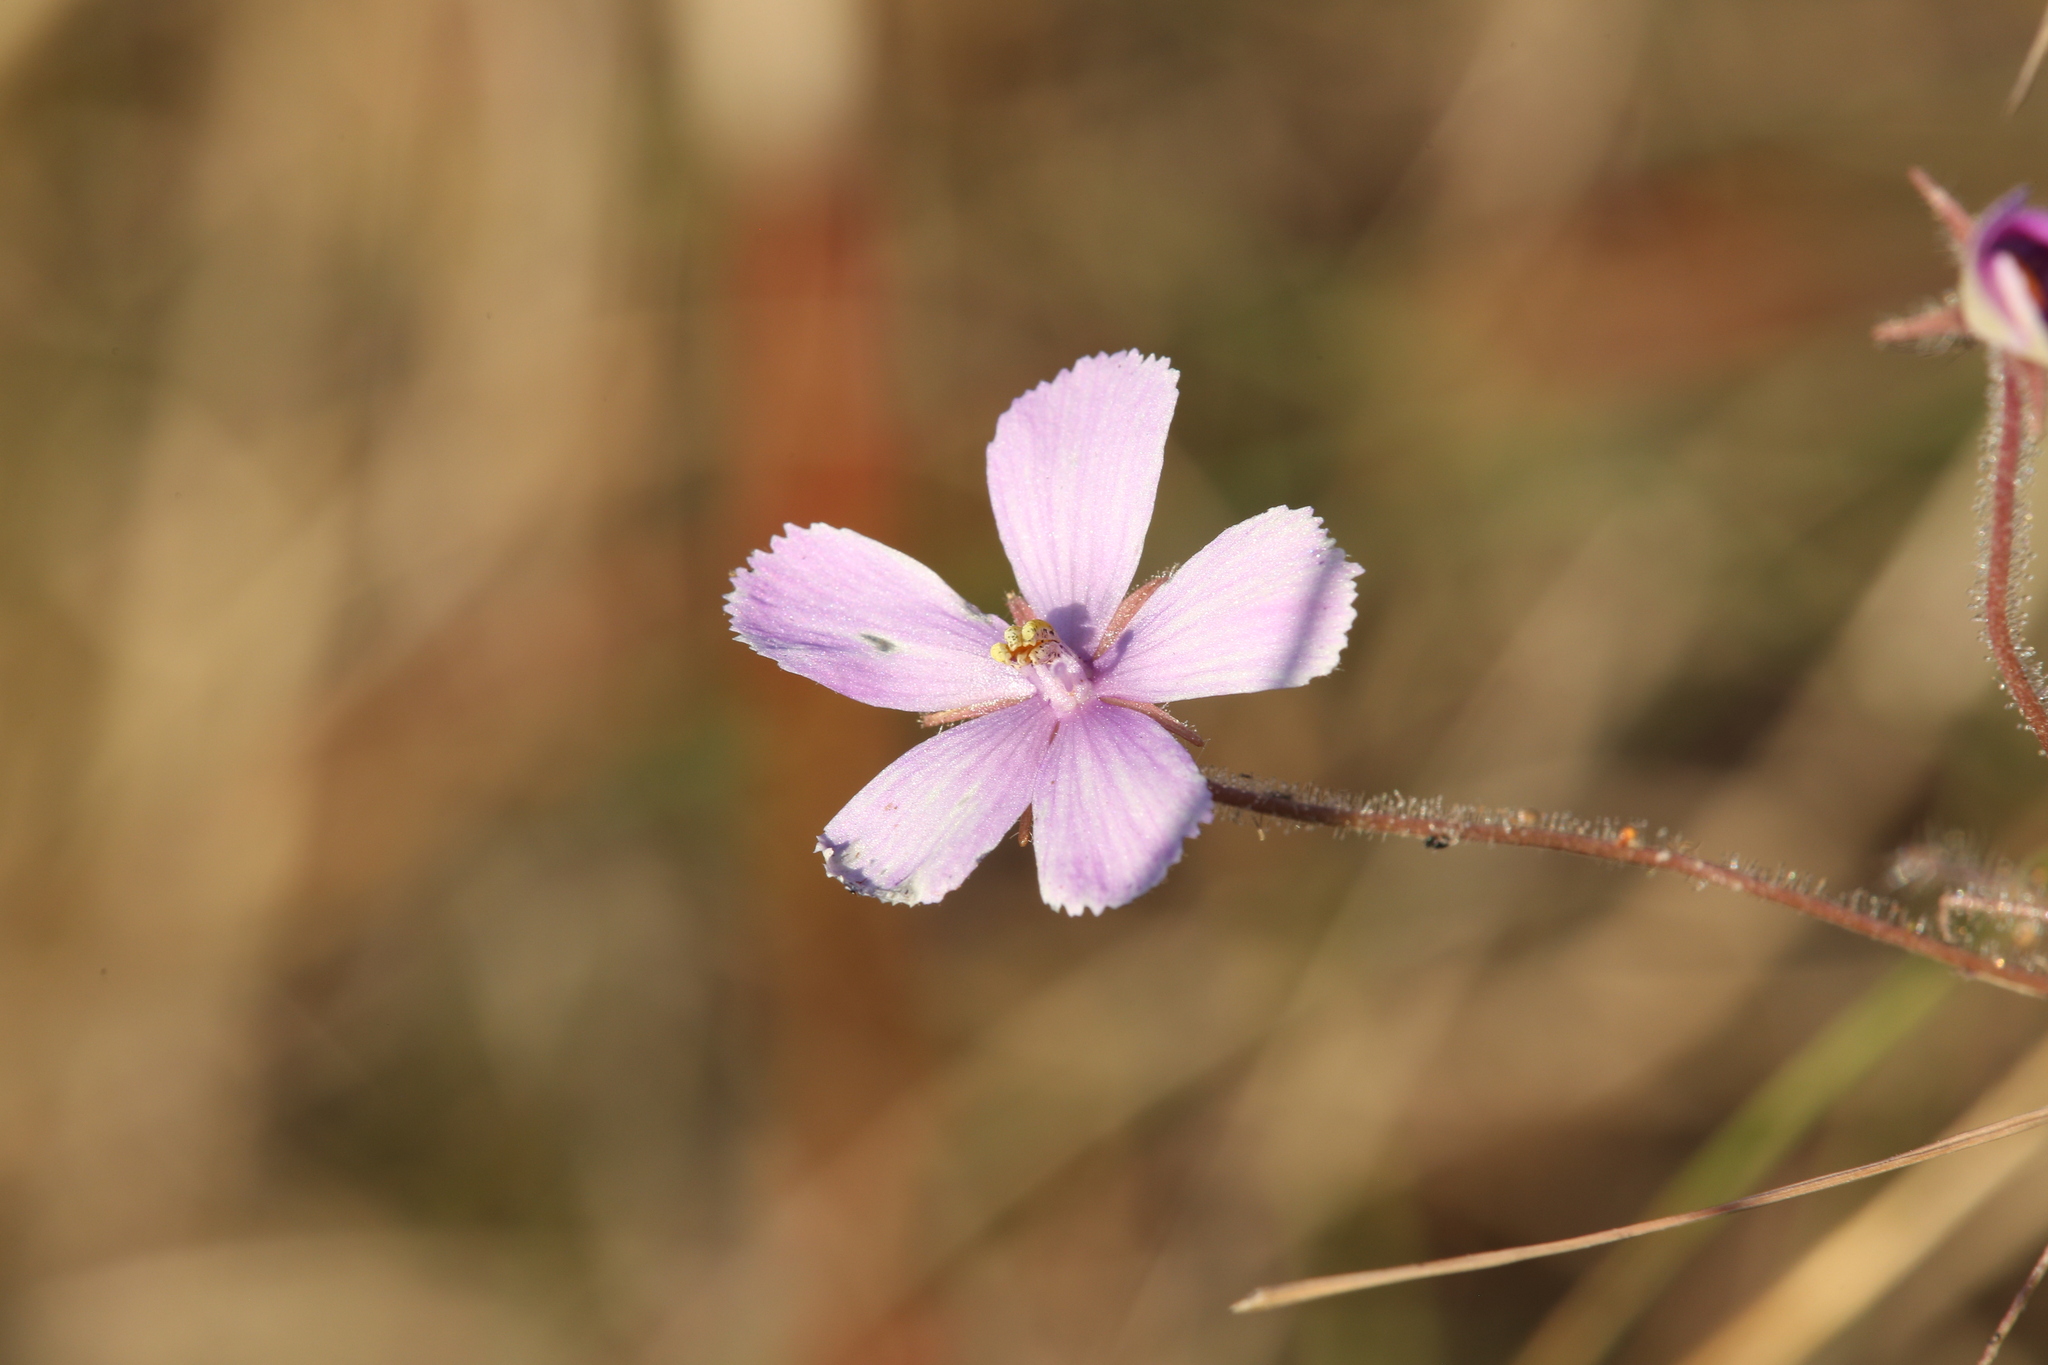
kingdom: Plantae
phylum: Tracheophyta
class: Magnoliopsida
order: Lamiales
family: Byblidaceae
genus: Byblis
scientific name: Byblis filifolia
